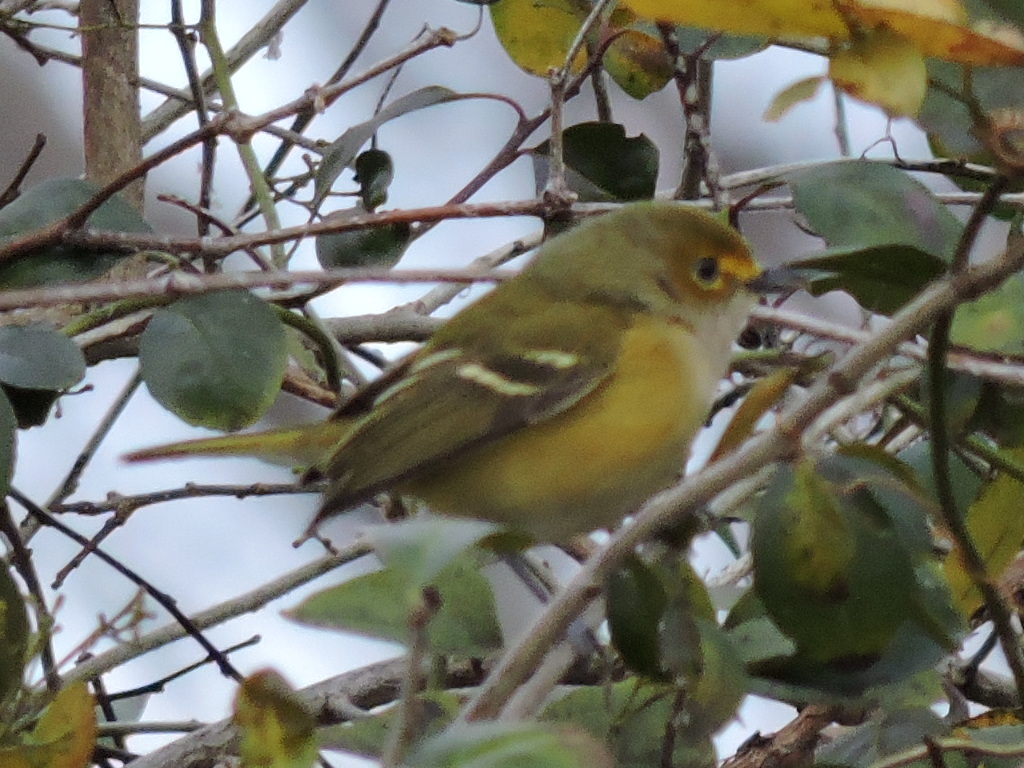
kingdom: Animalia
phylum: Chordata
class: Aves
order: Passeriformes
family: Vireonidae
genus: Vireo
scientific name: Vireo griseus
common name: White-eyed vireo
